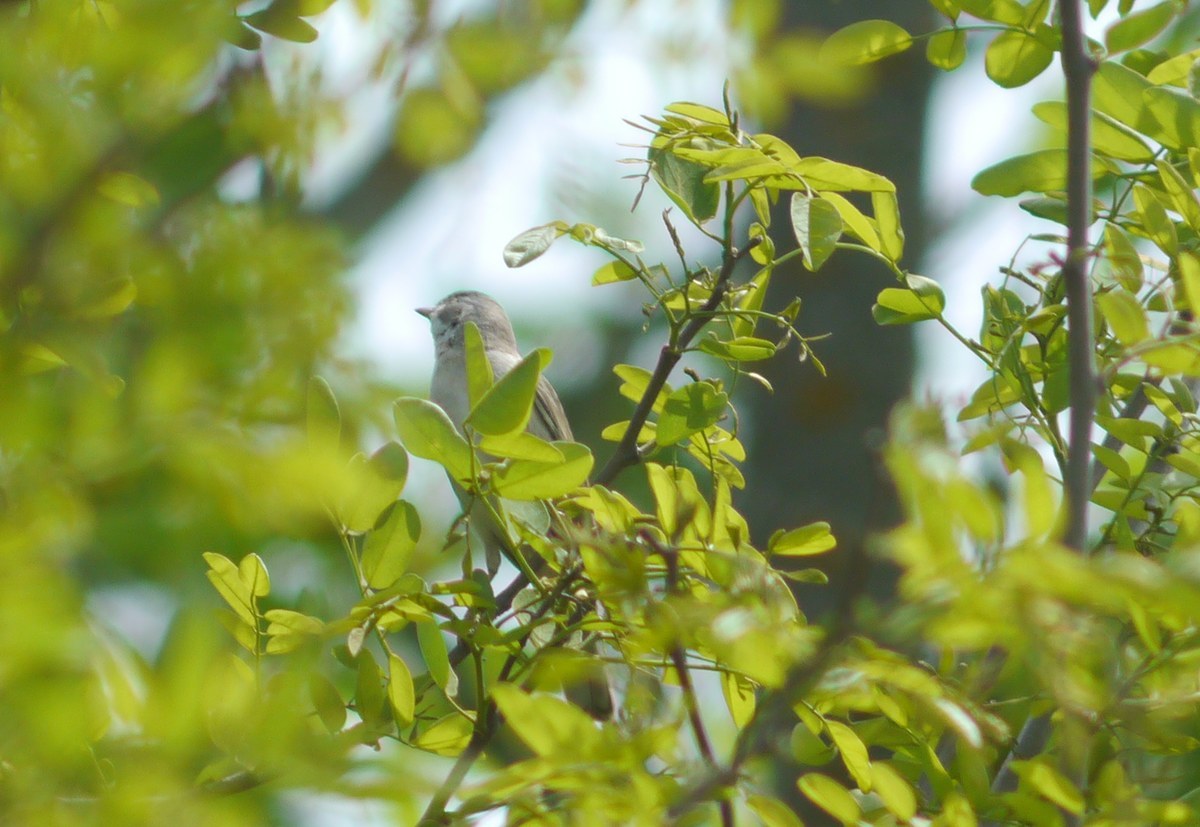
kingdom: Animalia
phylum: Chordata
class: Aves
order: Passeriformes
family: Sylviidae
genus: Sylvia
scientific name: Sylvia communis
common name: Common whitethroat
